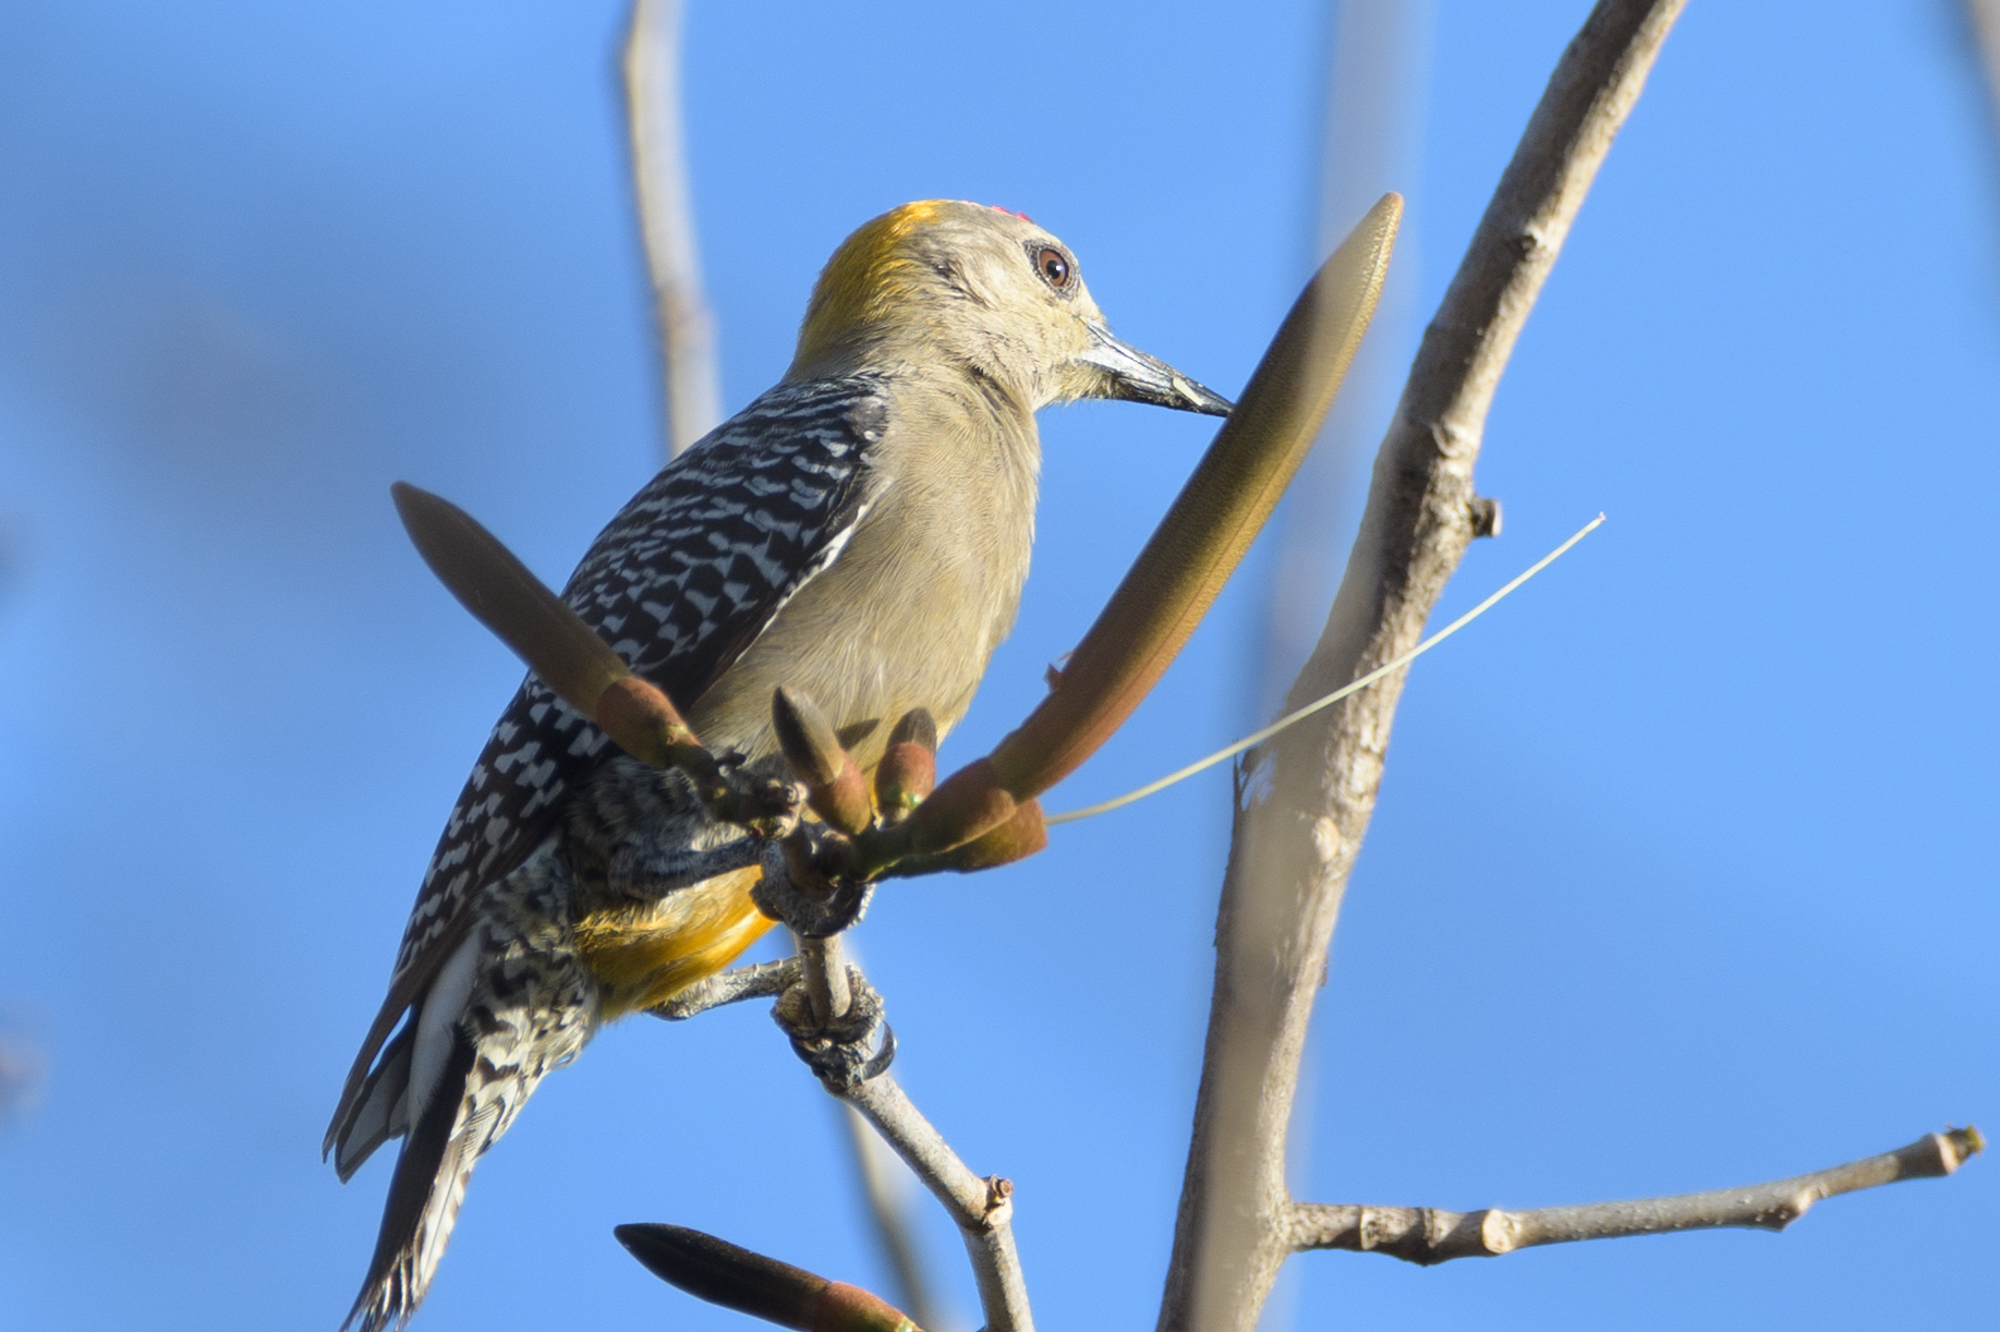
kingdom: Animalia
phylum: Chordata
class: Aves
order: Piciformes
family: Picidae
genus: Melanerpes
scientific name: Melanerpes hoffmannii
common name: Hoffmann's woodpecker
